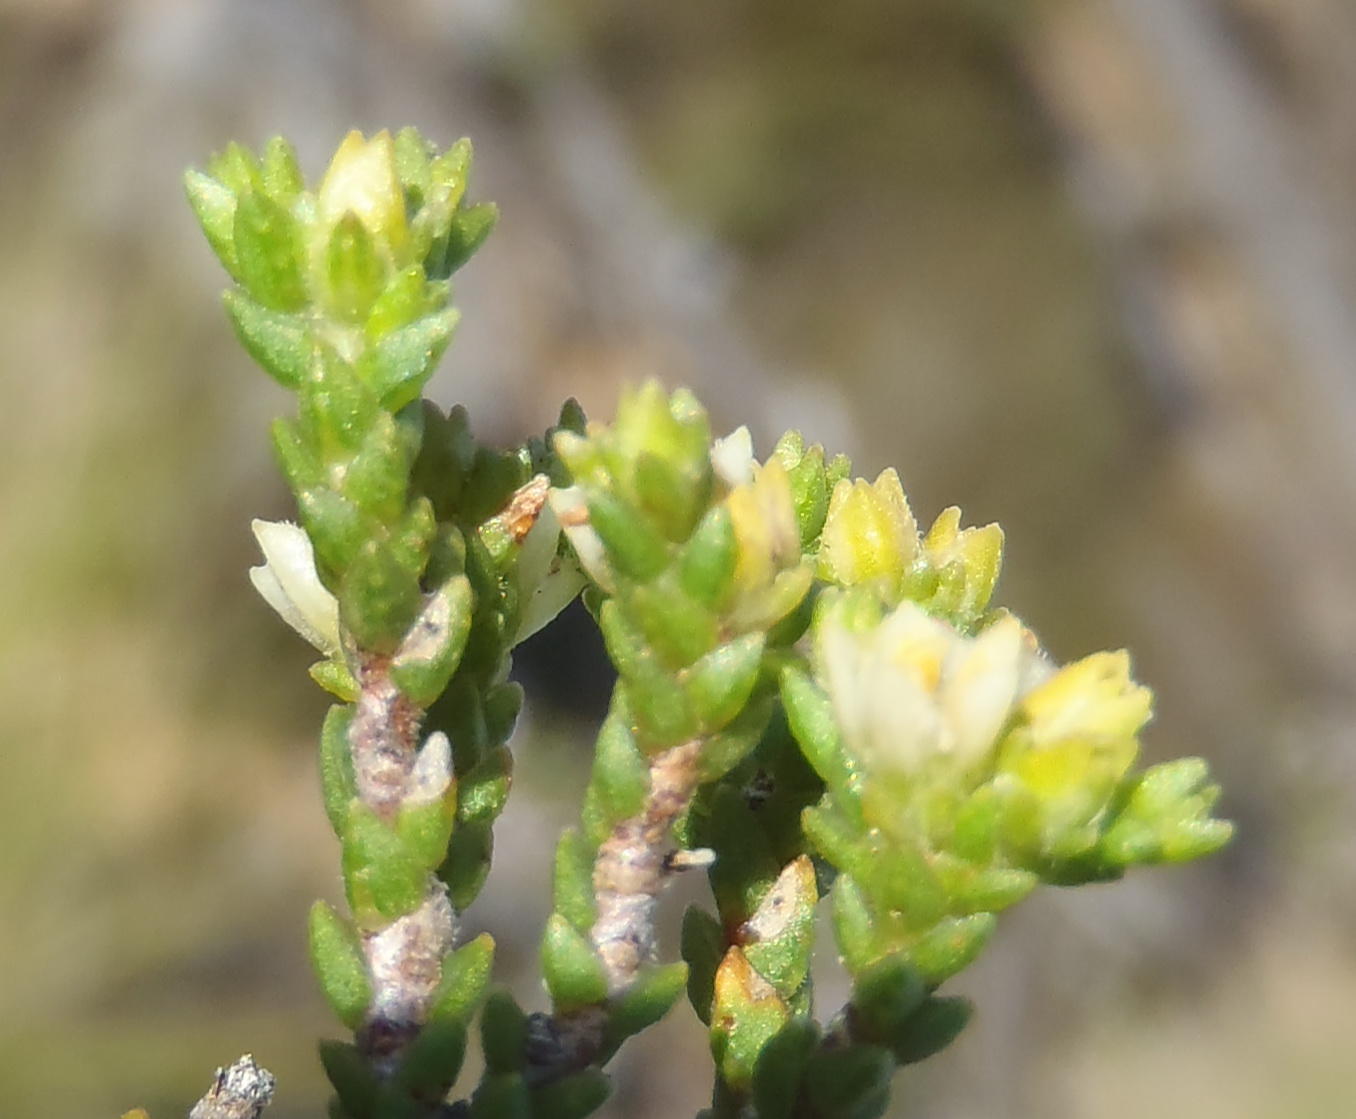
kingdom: Plantae
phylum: Tracheophyta
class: Magnoliopsida
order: Sapindales
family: Rutaceae
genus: Diosma
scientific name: Diosma apetala
